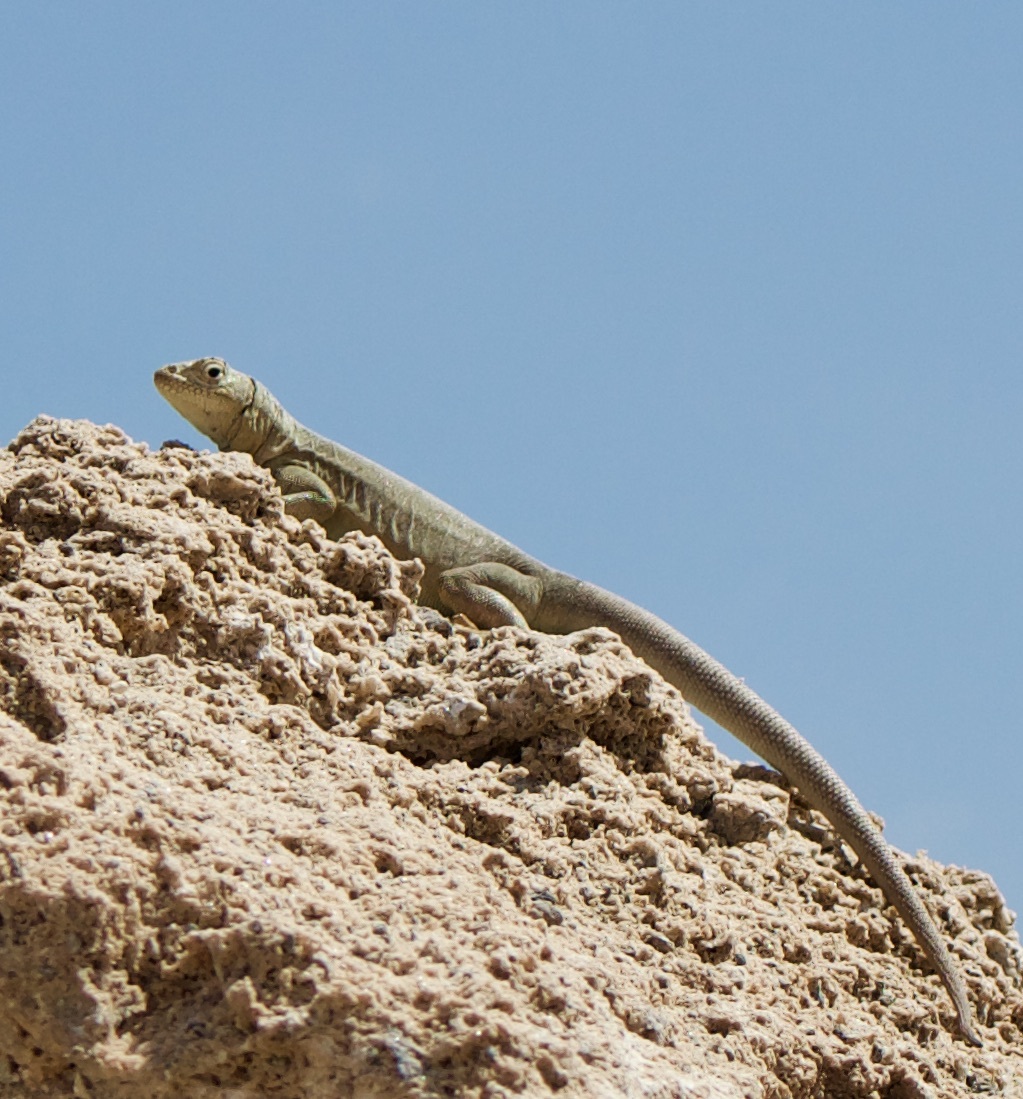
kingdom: Animalia
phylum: Chordata
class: Squamata
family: Tropiduridae
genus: Microlophus
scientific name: Microlophus theresioides
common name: Small pacific iguana
